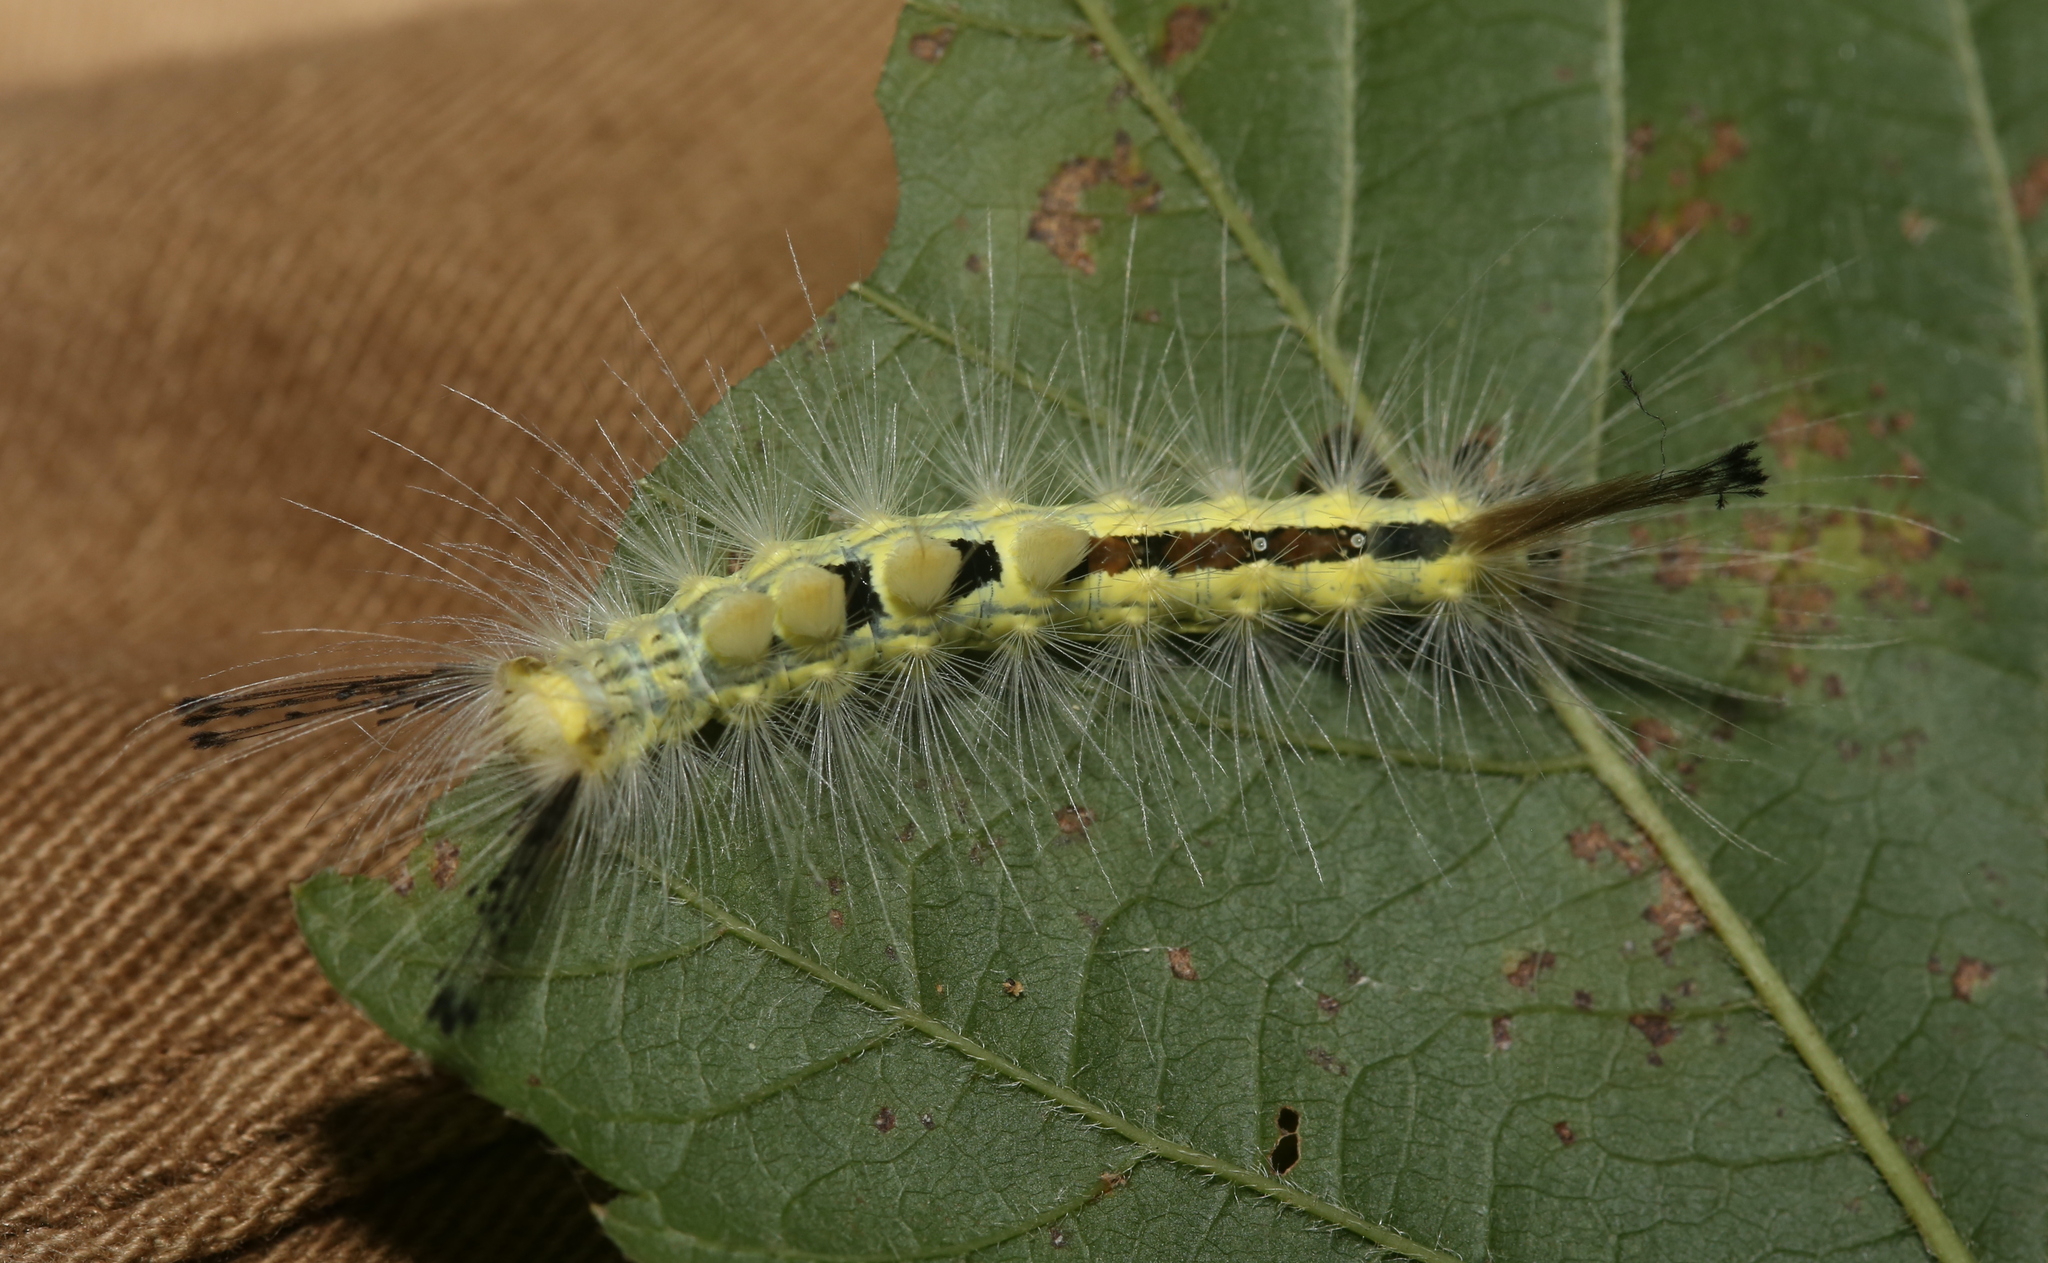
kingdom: Animalia
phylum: Arthropoda
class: Insecta
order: Lepidoptera
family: Erebidae
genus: Orgyia
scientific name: Orgyia definita
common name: Definite tussock moth
